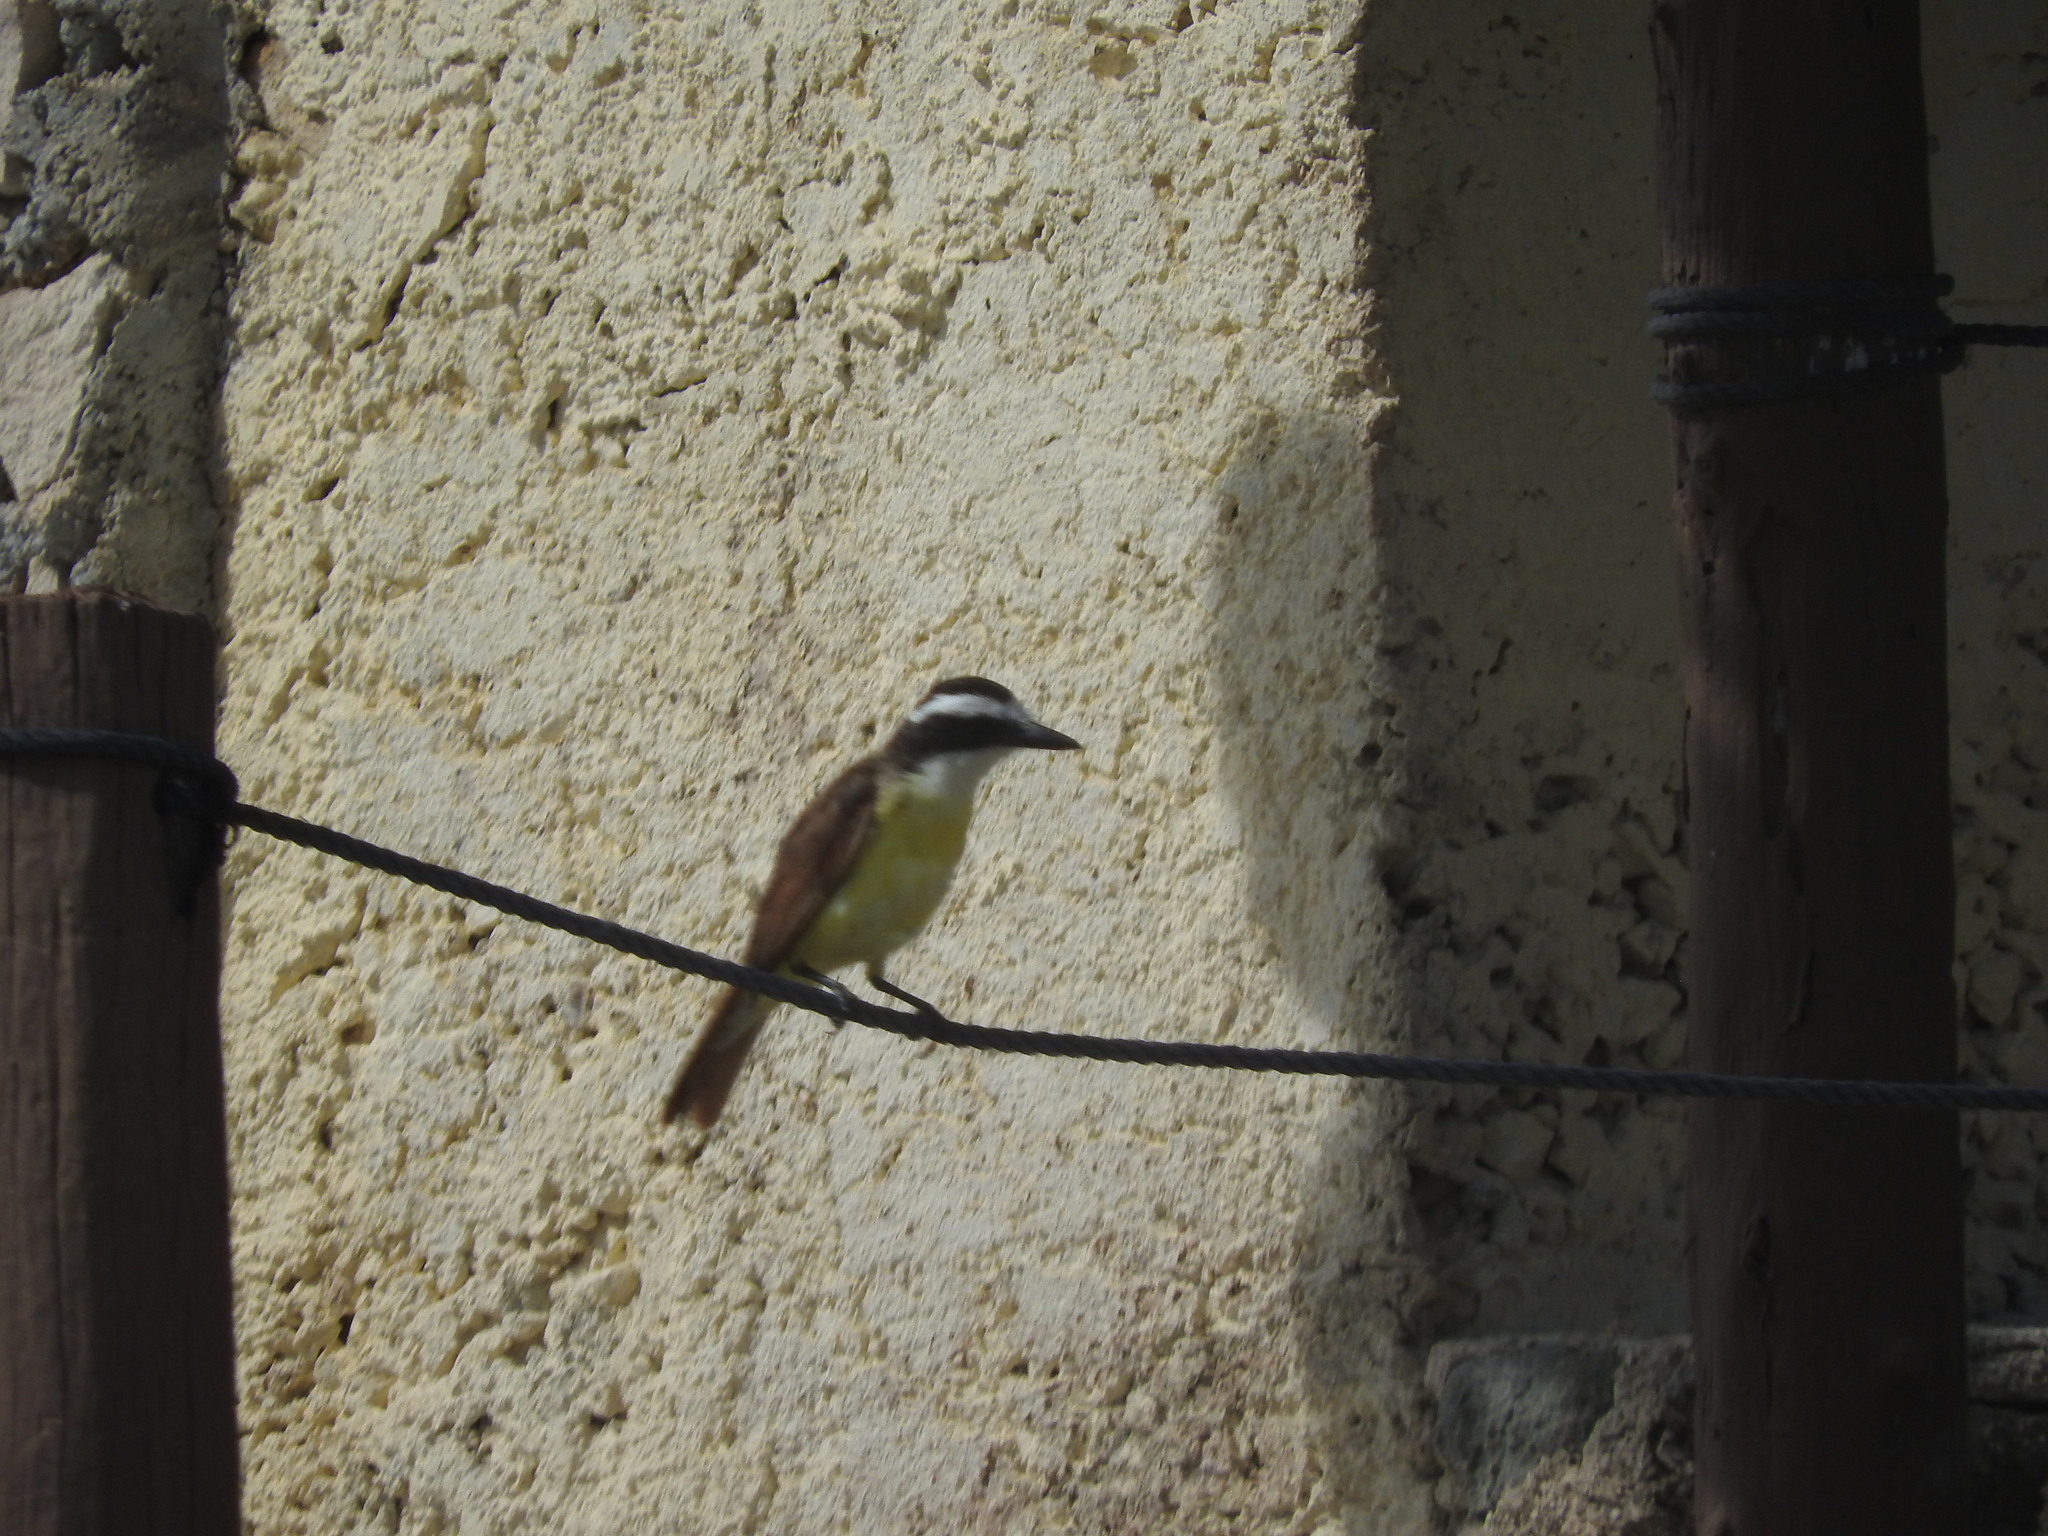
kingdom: Animalia
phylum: Chordata
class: Aves
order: Passeriformes
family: Tyrannidae
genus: Pitangus
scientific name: Pitangus sulphuratus
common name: Great kiskadee
